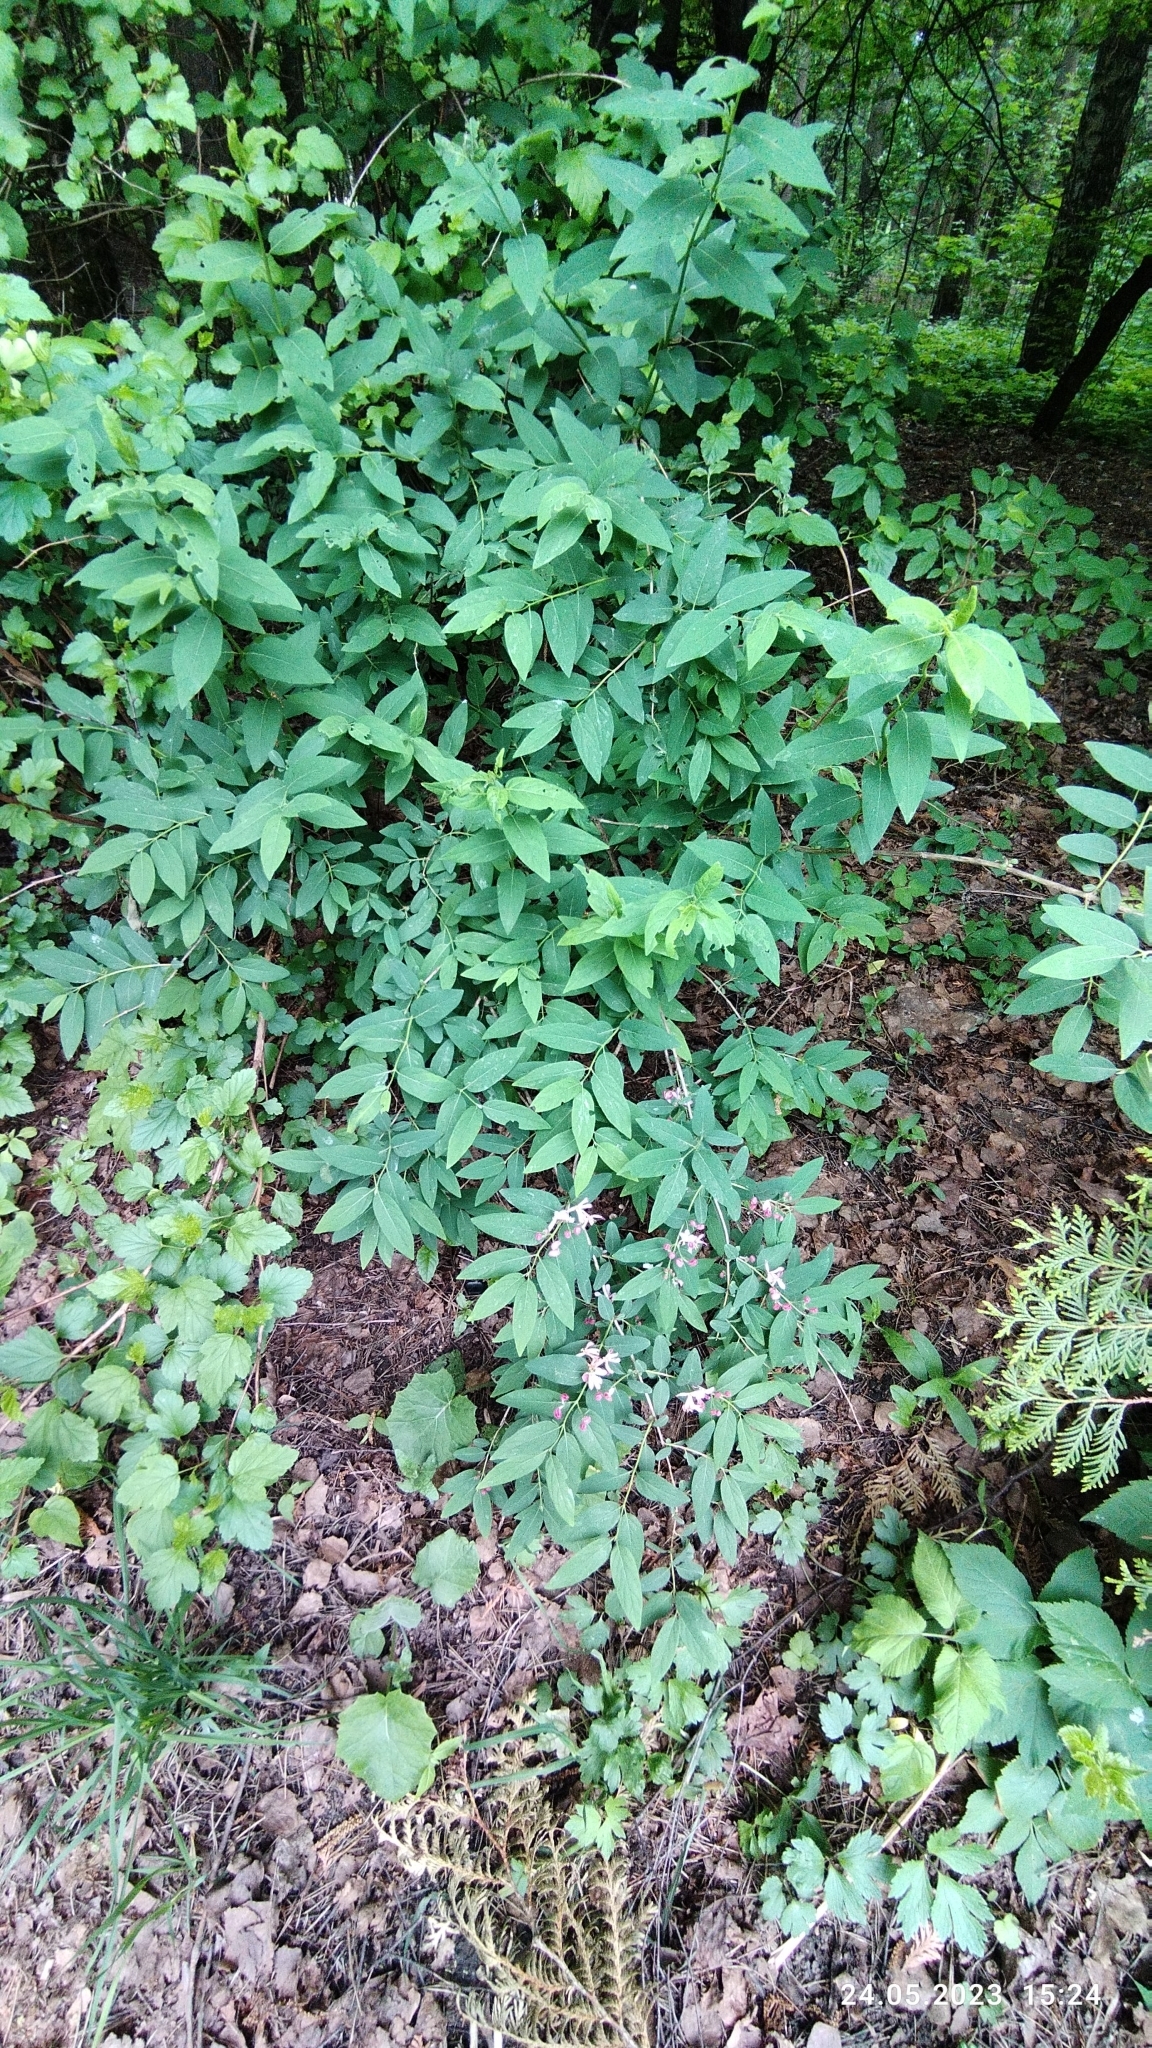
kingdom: Plantae
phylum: Tracheophyta
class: Magnoliopsida
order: Dipsacales
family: Caprifoliaceae
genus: Lonicera
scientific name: Lonicera tatarica
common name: Tatarian honeysuckle
